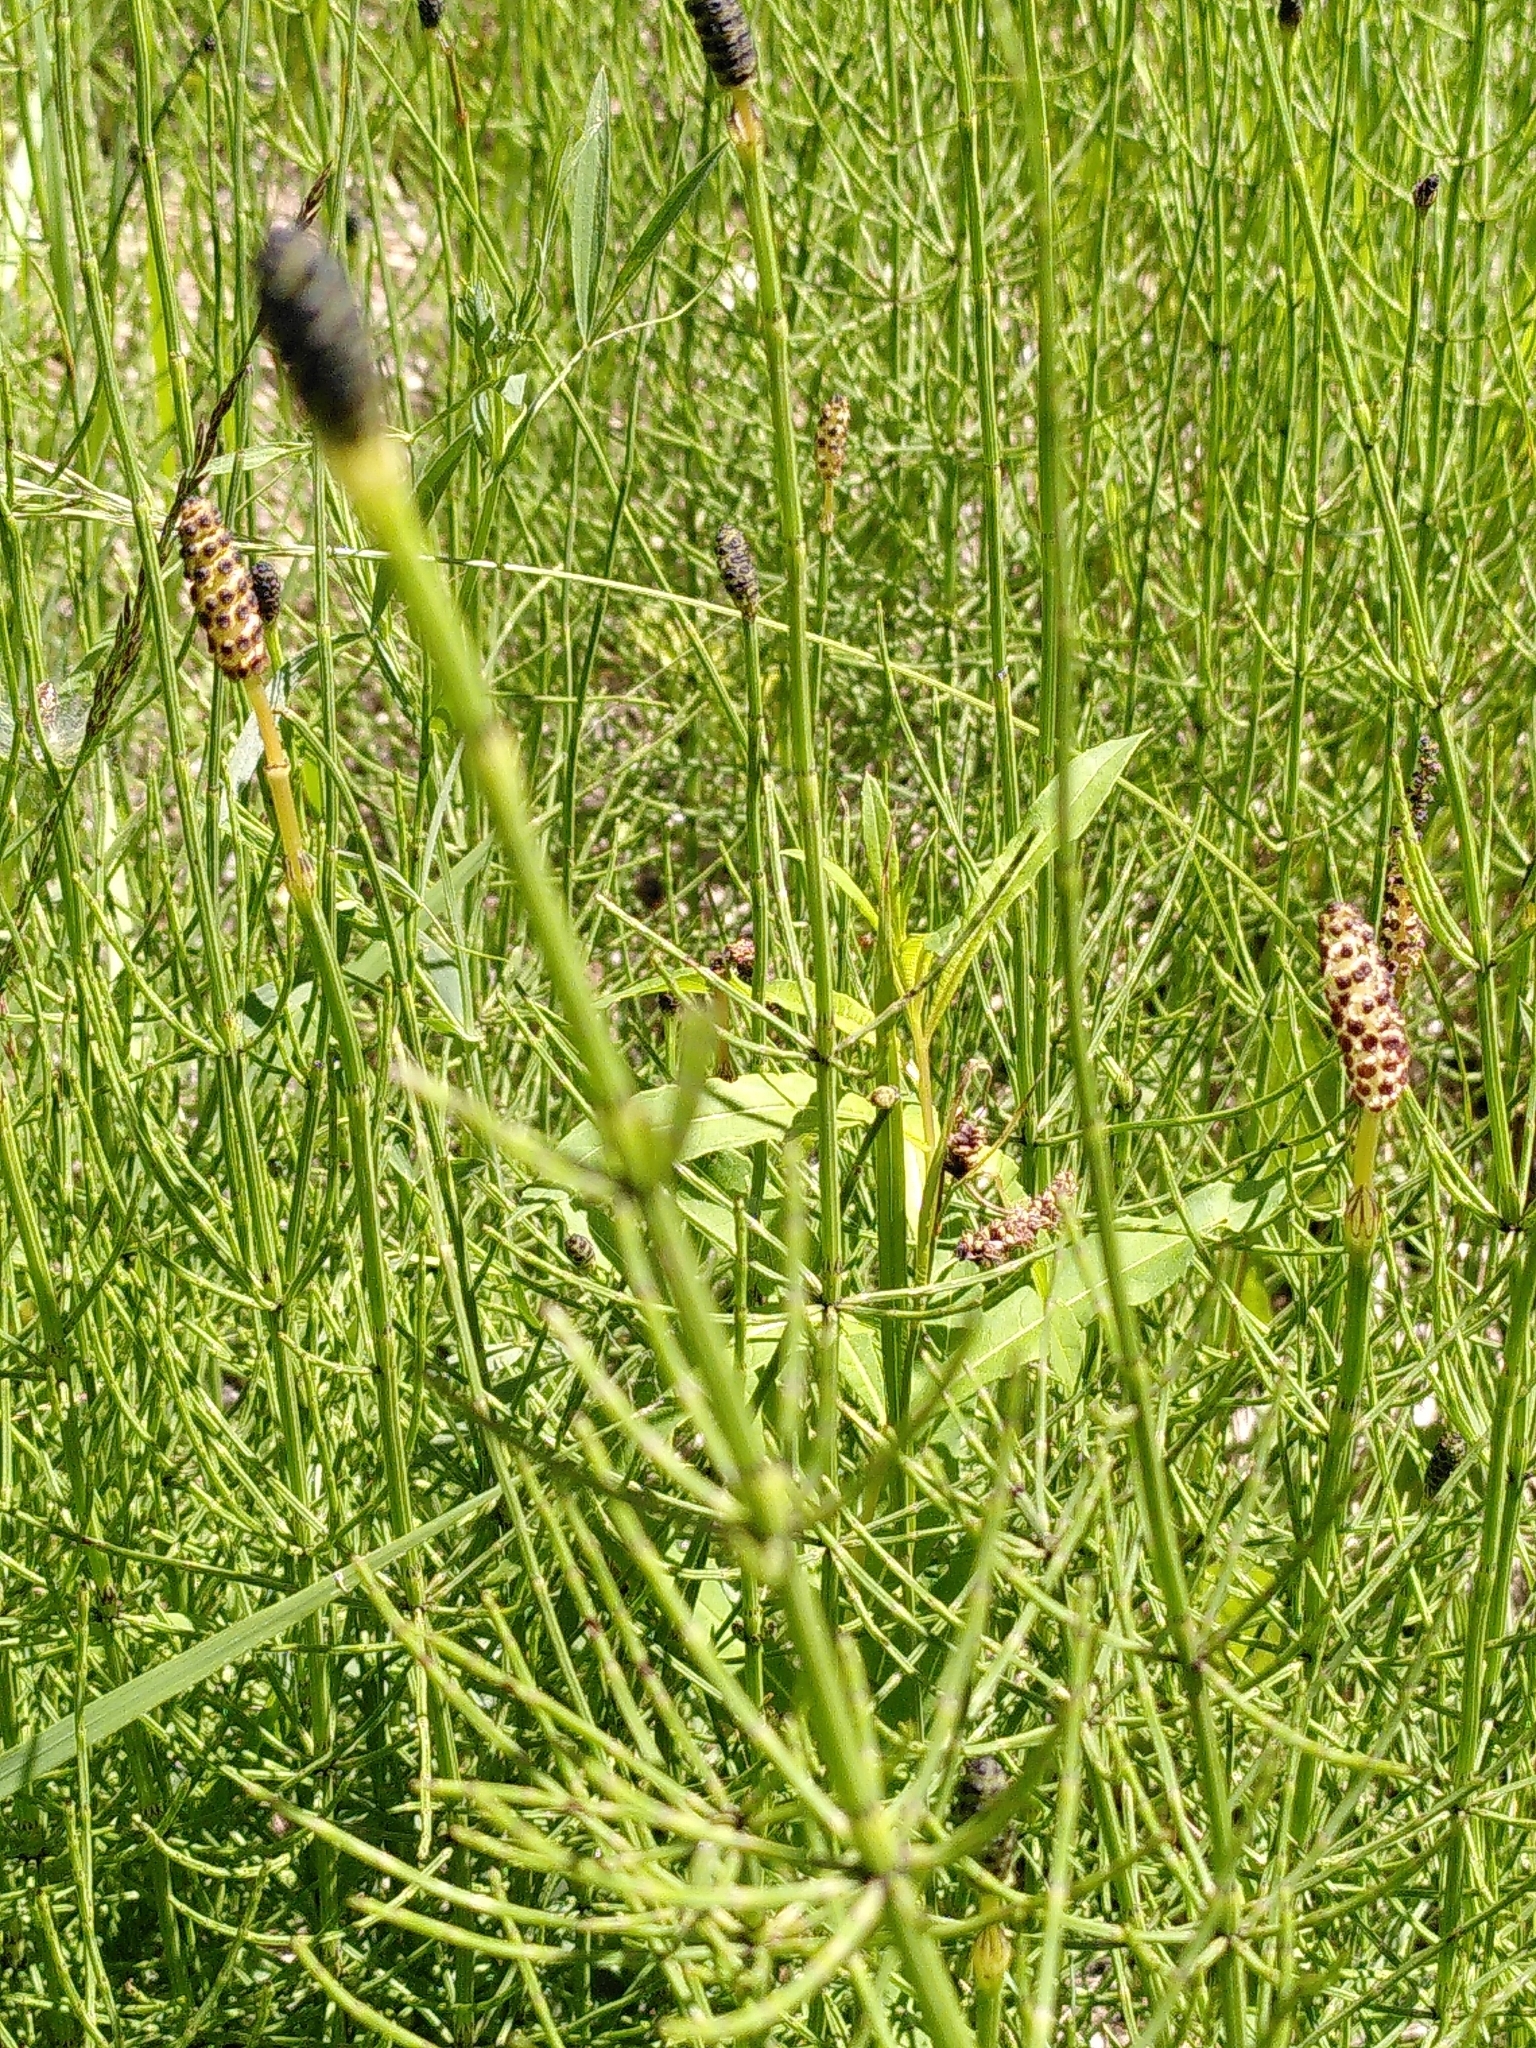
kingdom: Plantae
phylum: Tracheophyta
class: Polypodiopsida
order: Equisetales
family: Equisetaceae
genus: Equisetum
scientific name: Equisetum palustre
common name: Marsh horsetail
